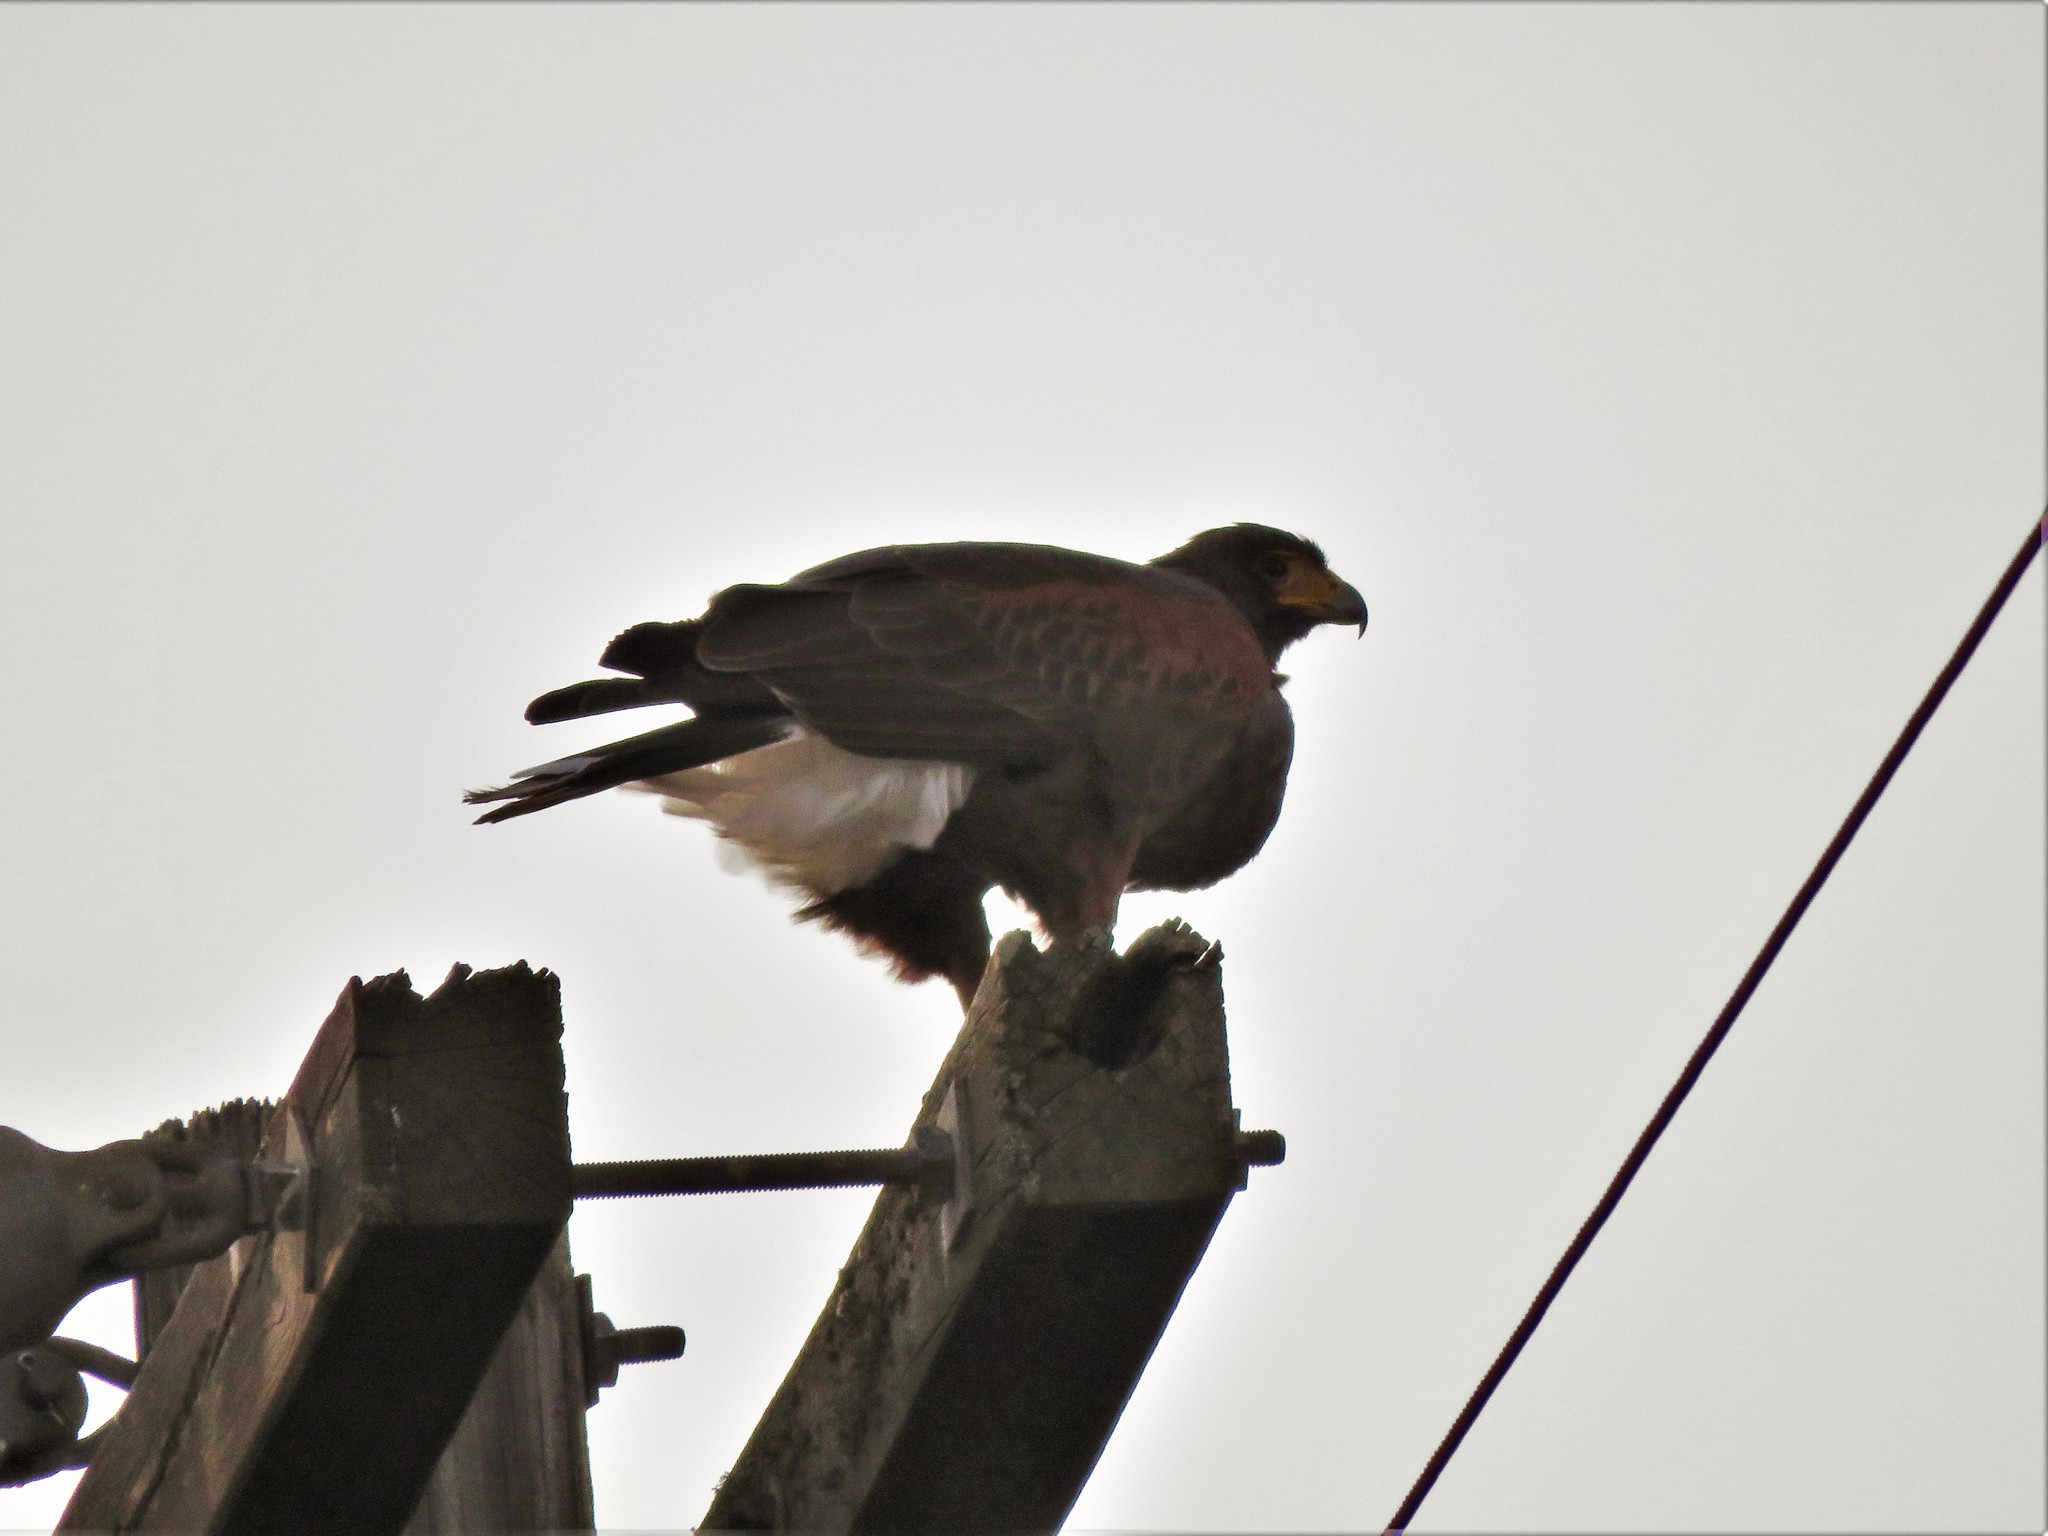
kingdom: Animalia
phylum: Chordata
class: Aves
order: Accipitriformes
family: Accipitridae
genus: Parabuteo
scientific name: Parabuteo unicinctus
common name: Harris's hawk
